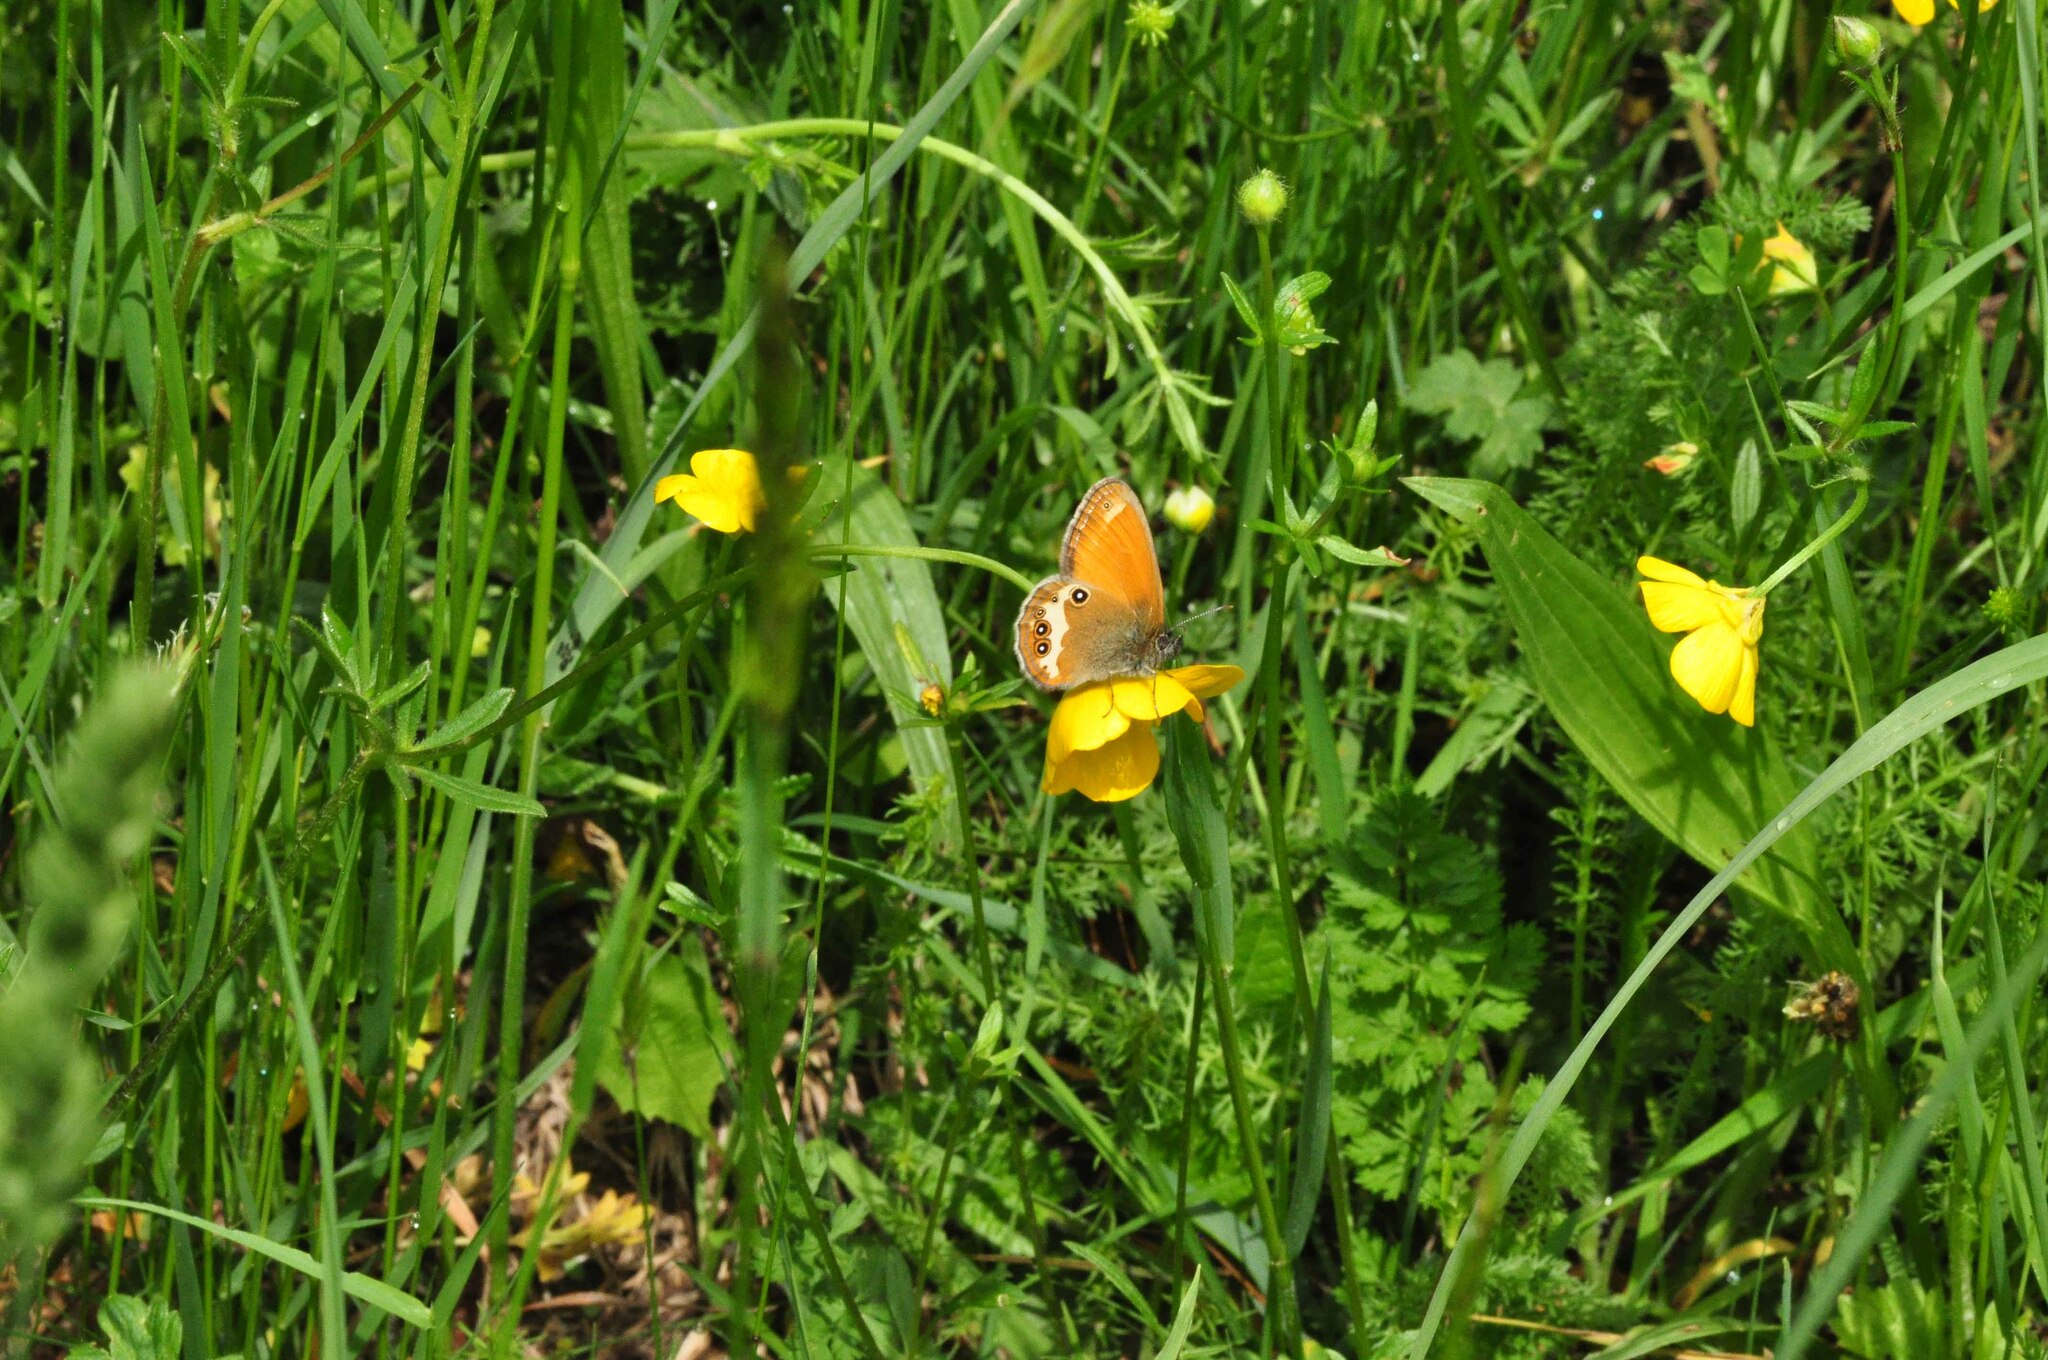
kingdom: Animalia
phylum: Arthropoda
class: Insecta
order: Lepidoptera
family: Nymphalidae
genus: Coenonympha
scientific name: Coenonympha arcania
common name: Pearly heath
